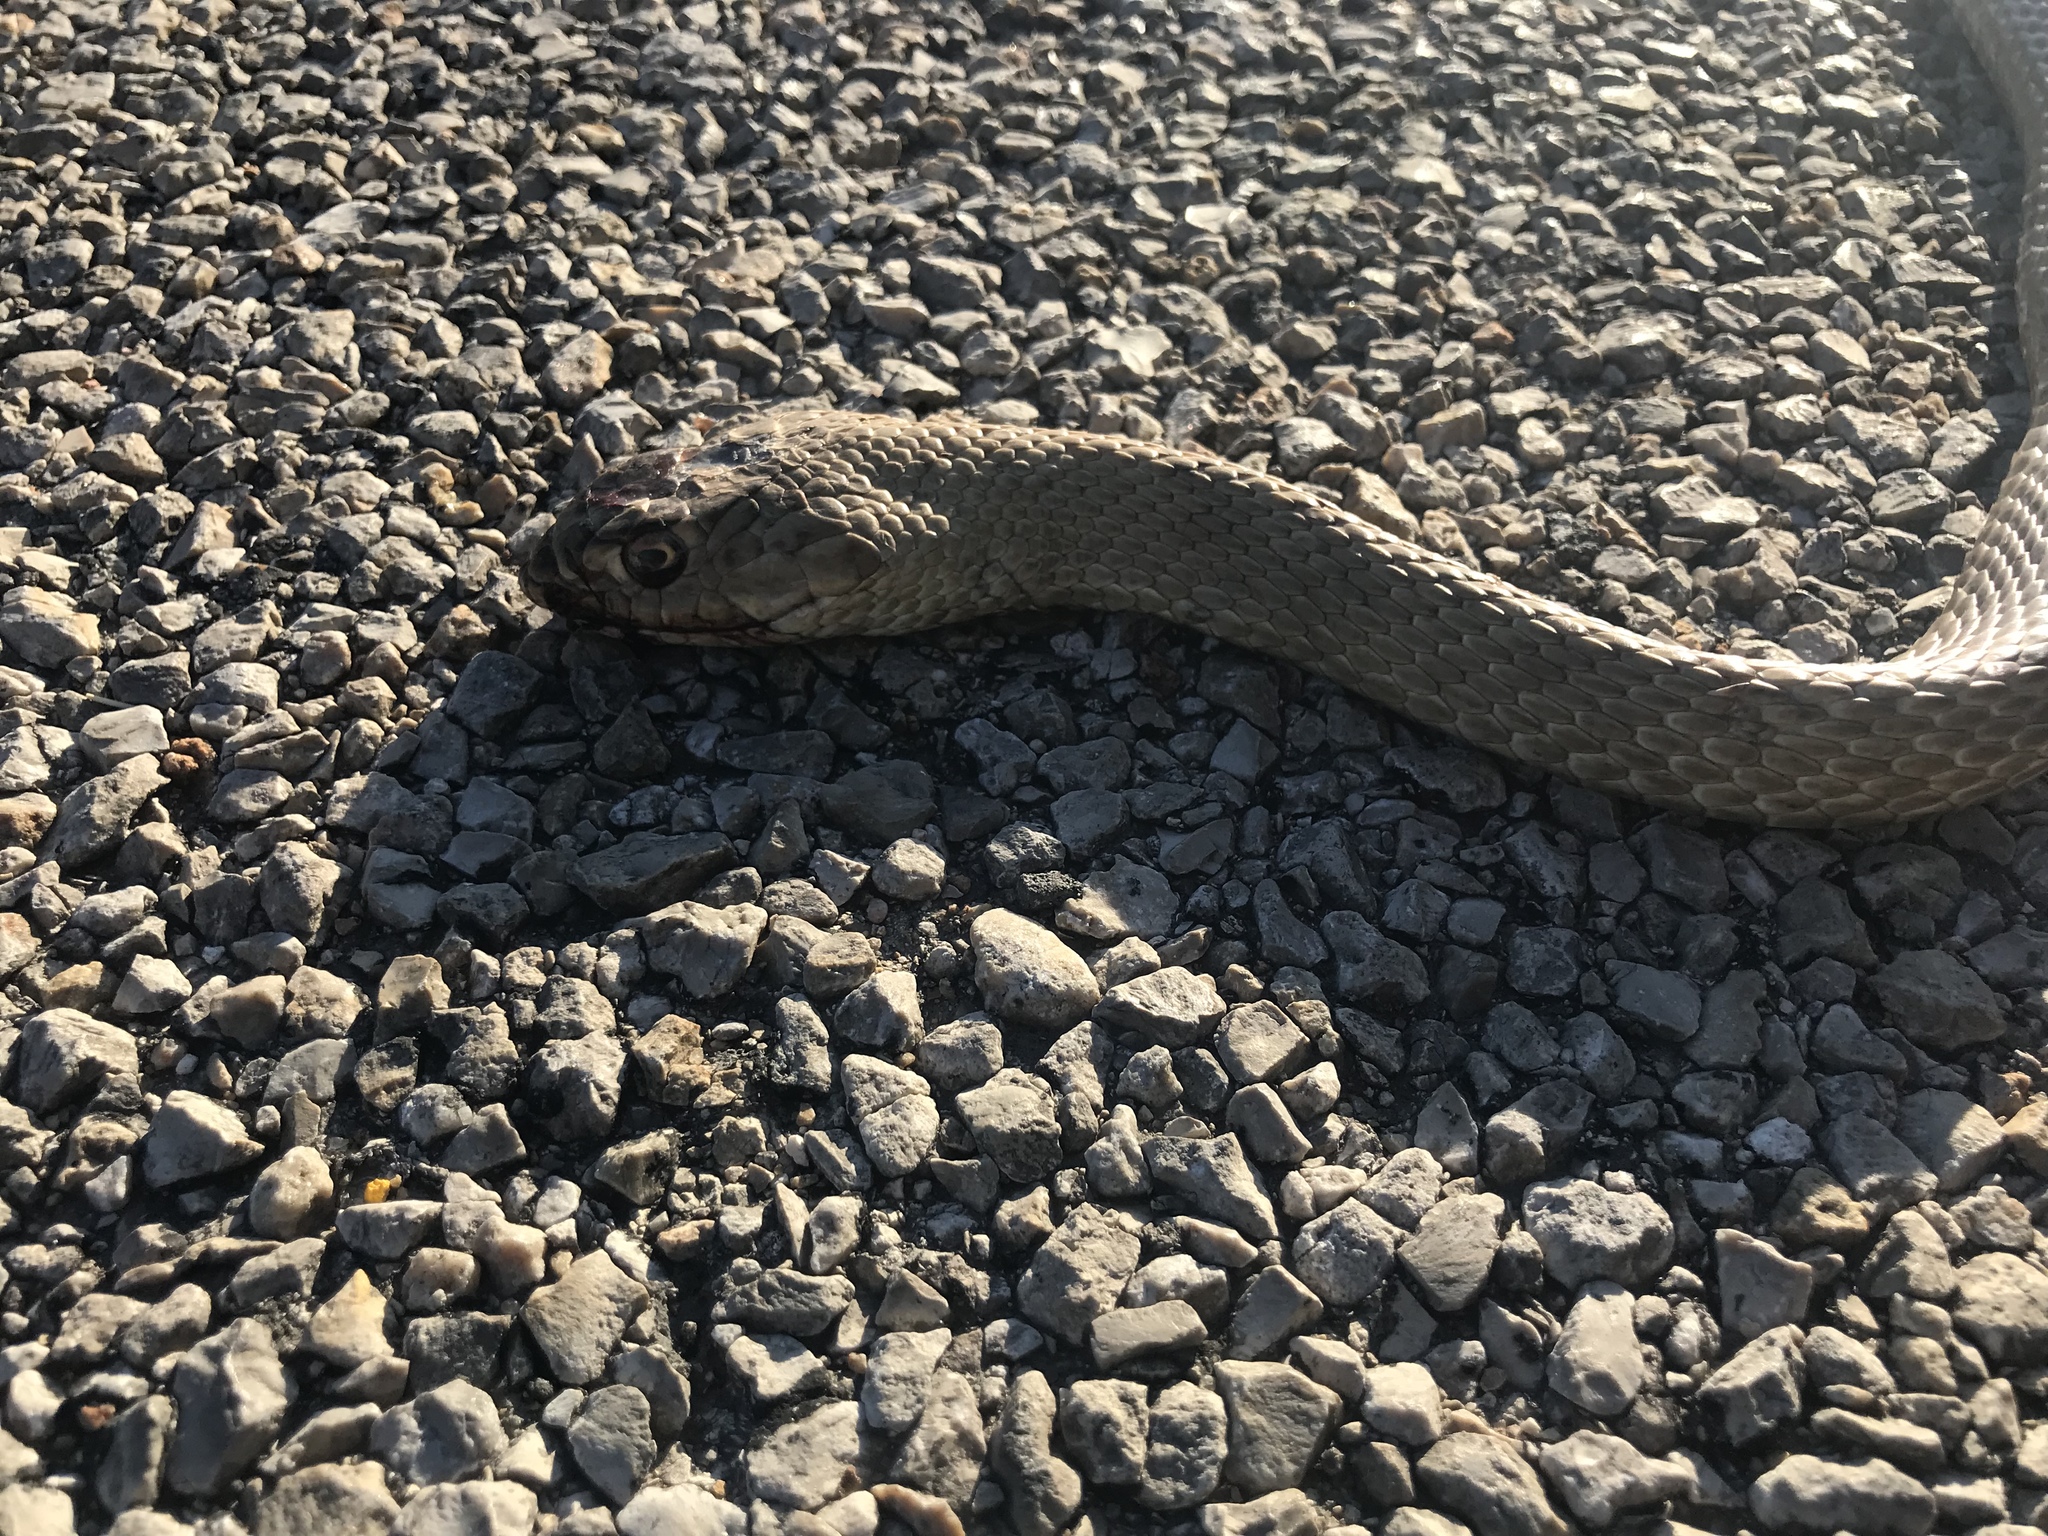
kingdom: Animalia
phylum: Chordata
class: Squamata
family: Colubridae
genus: Masticophis
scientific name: Masticophis flagellum
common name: Coachwhip
